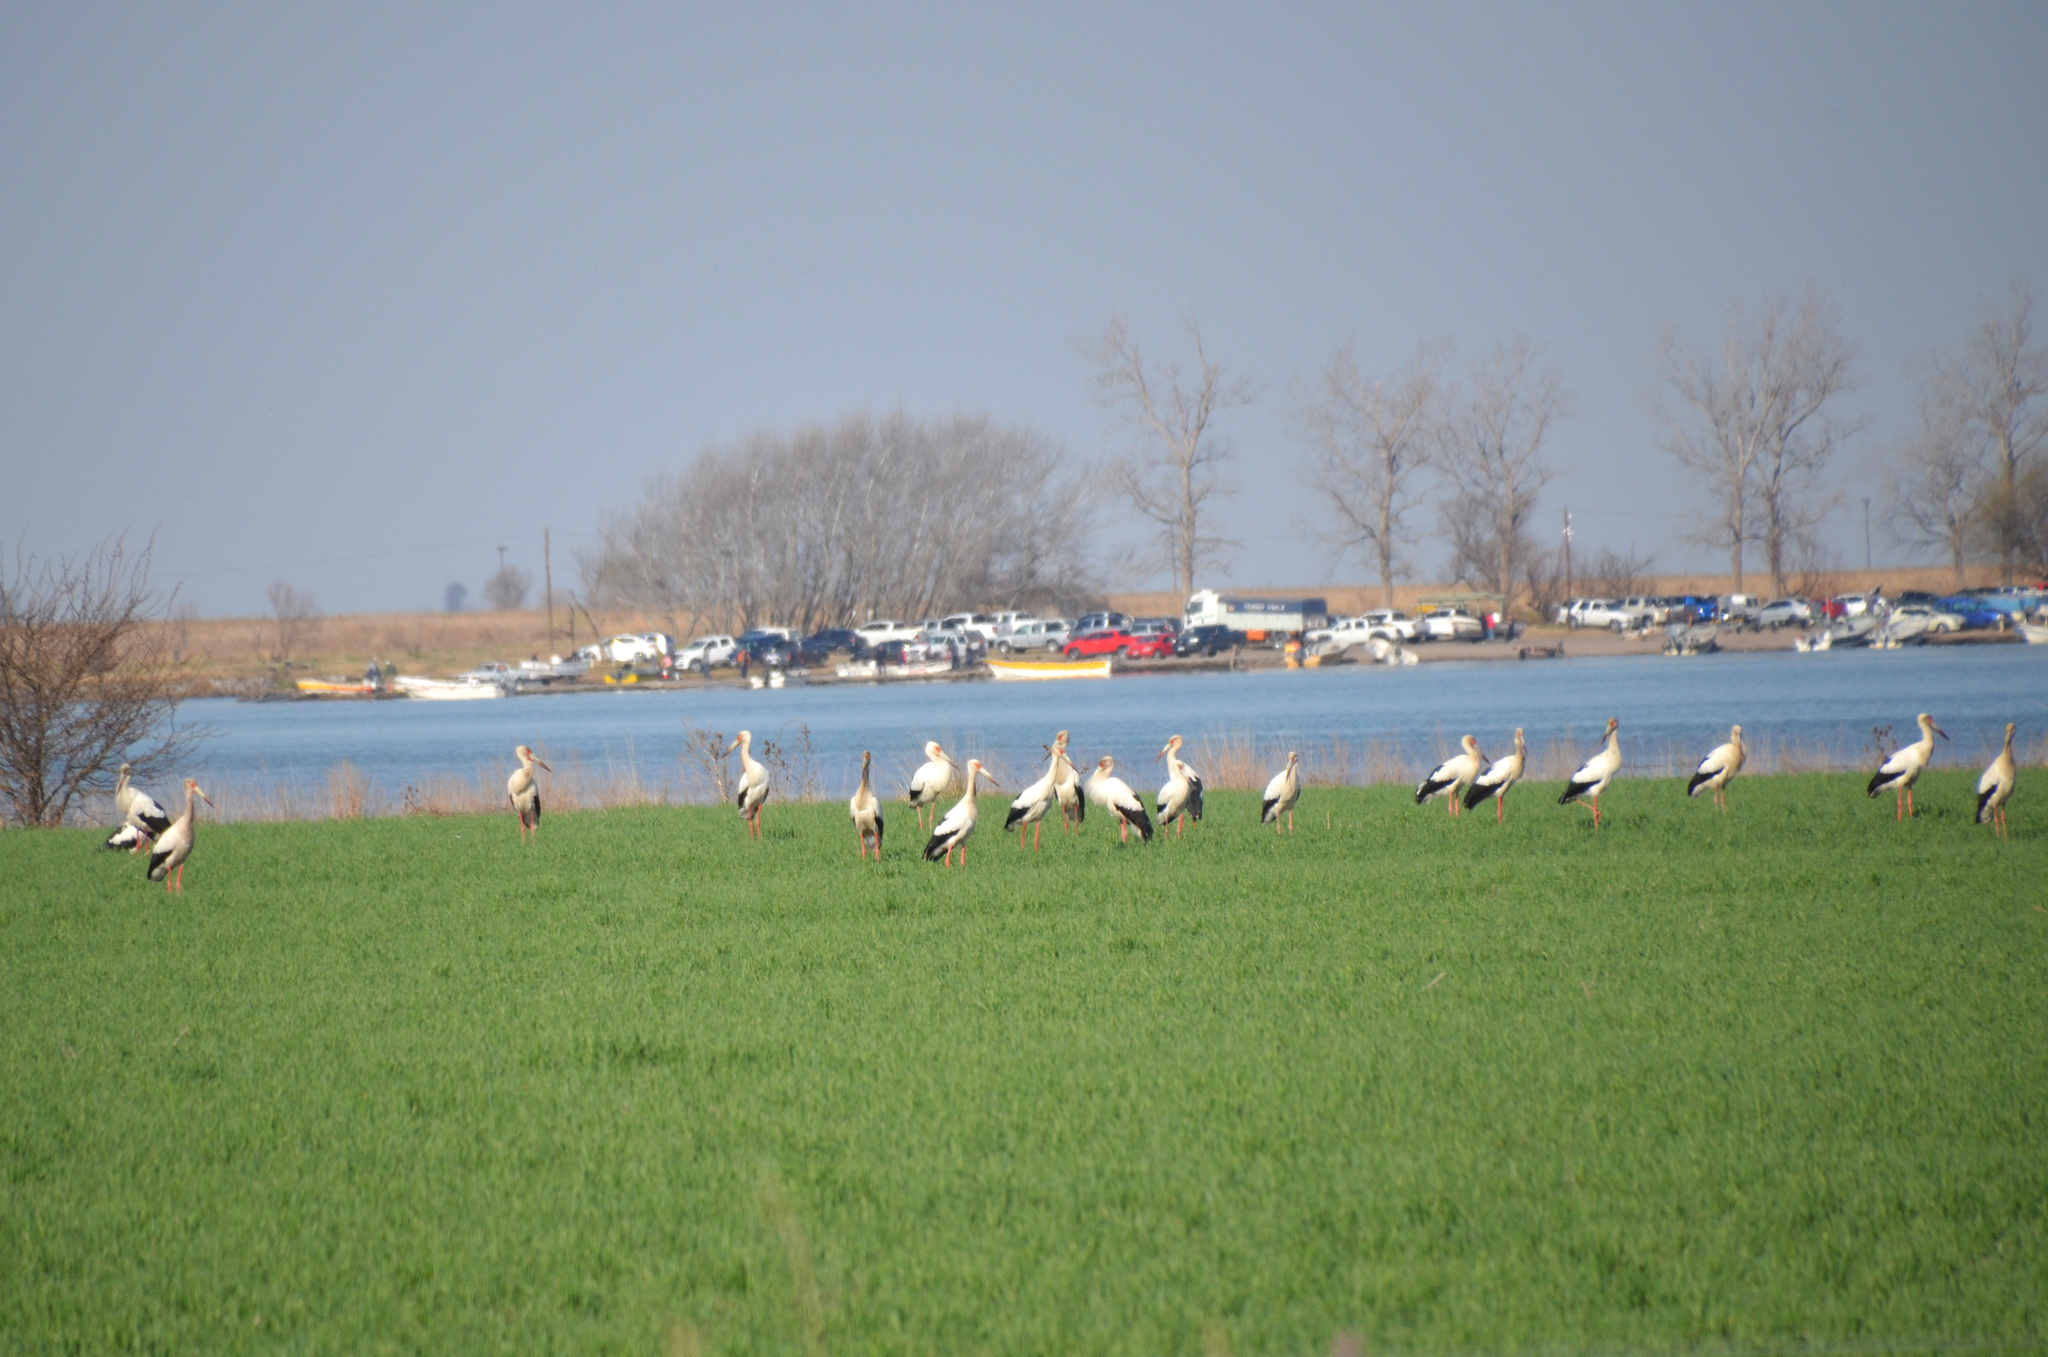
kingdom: Animalia
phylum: Chordata
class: Aves
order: Ciconiiformes
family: Ciconiidae
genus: Ciconia
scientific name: Ciconia maguari
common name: Maguari stork
